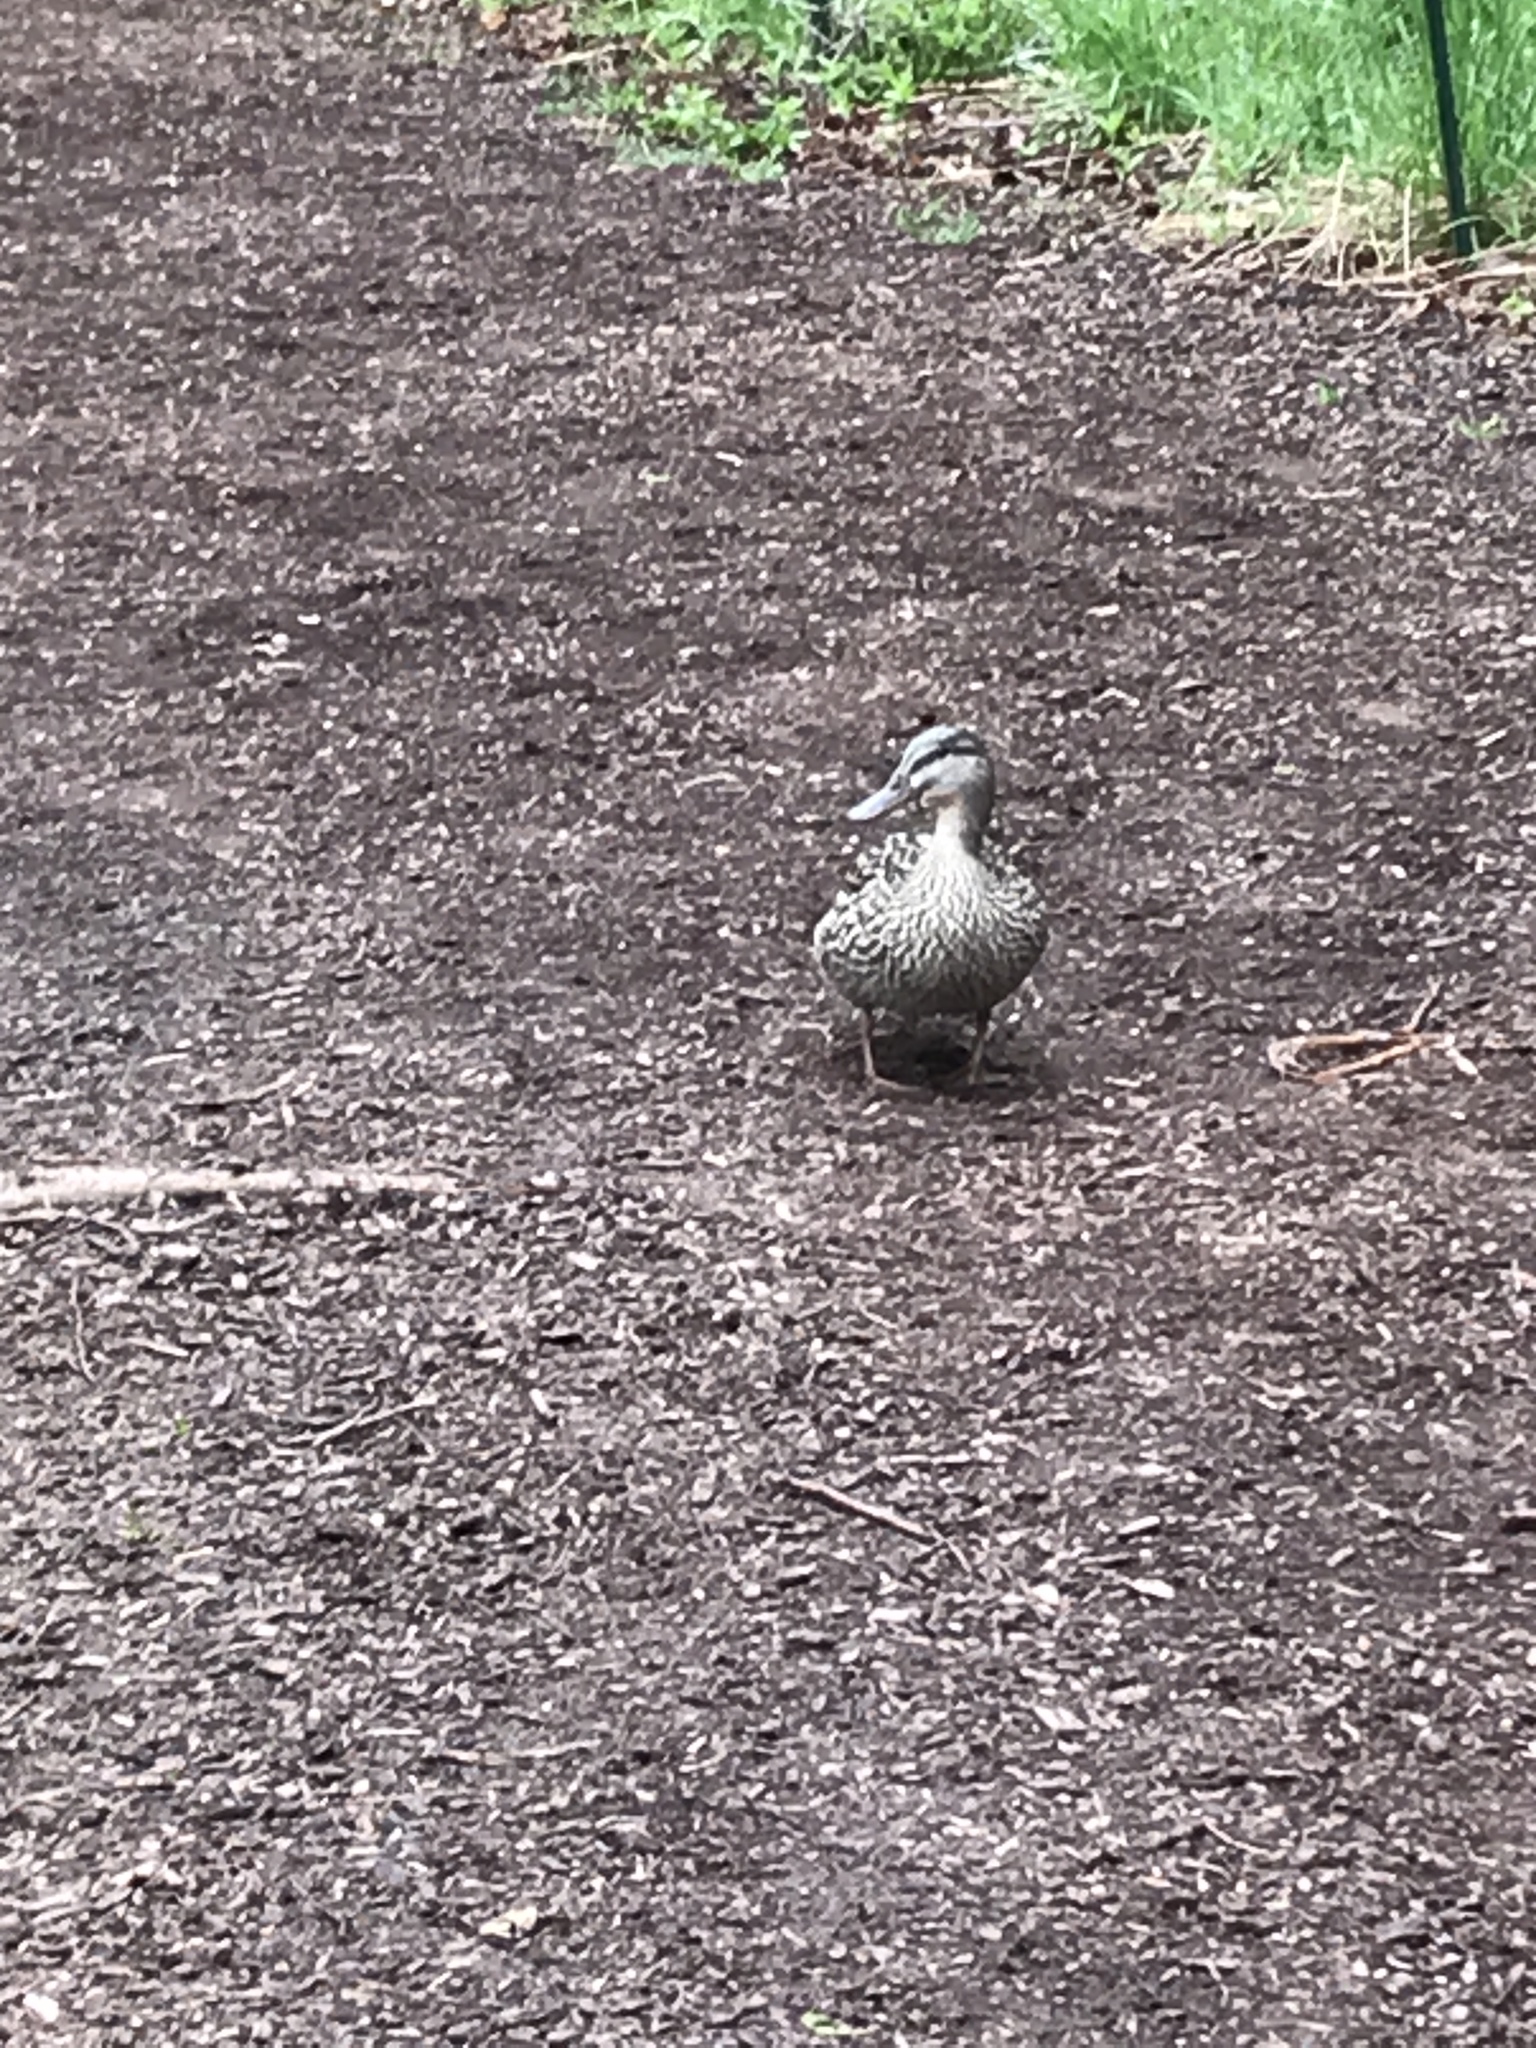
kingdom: Animalia
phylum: Chordata
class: Aves
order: Anseriformes
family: Anatidae
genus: Anas
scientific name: Anas platyrhynchos
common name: Mallard
